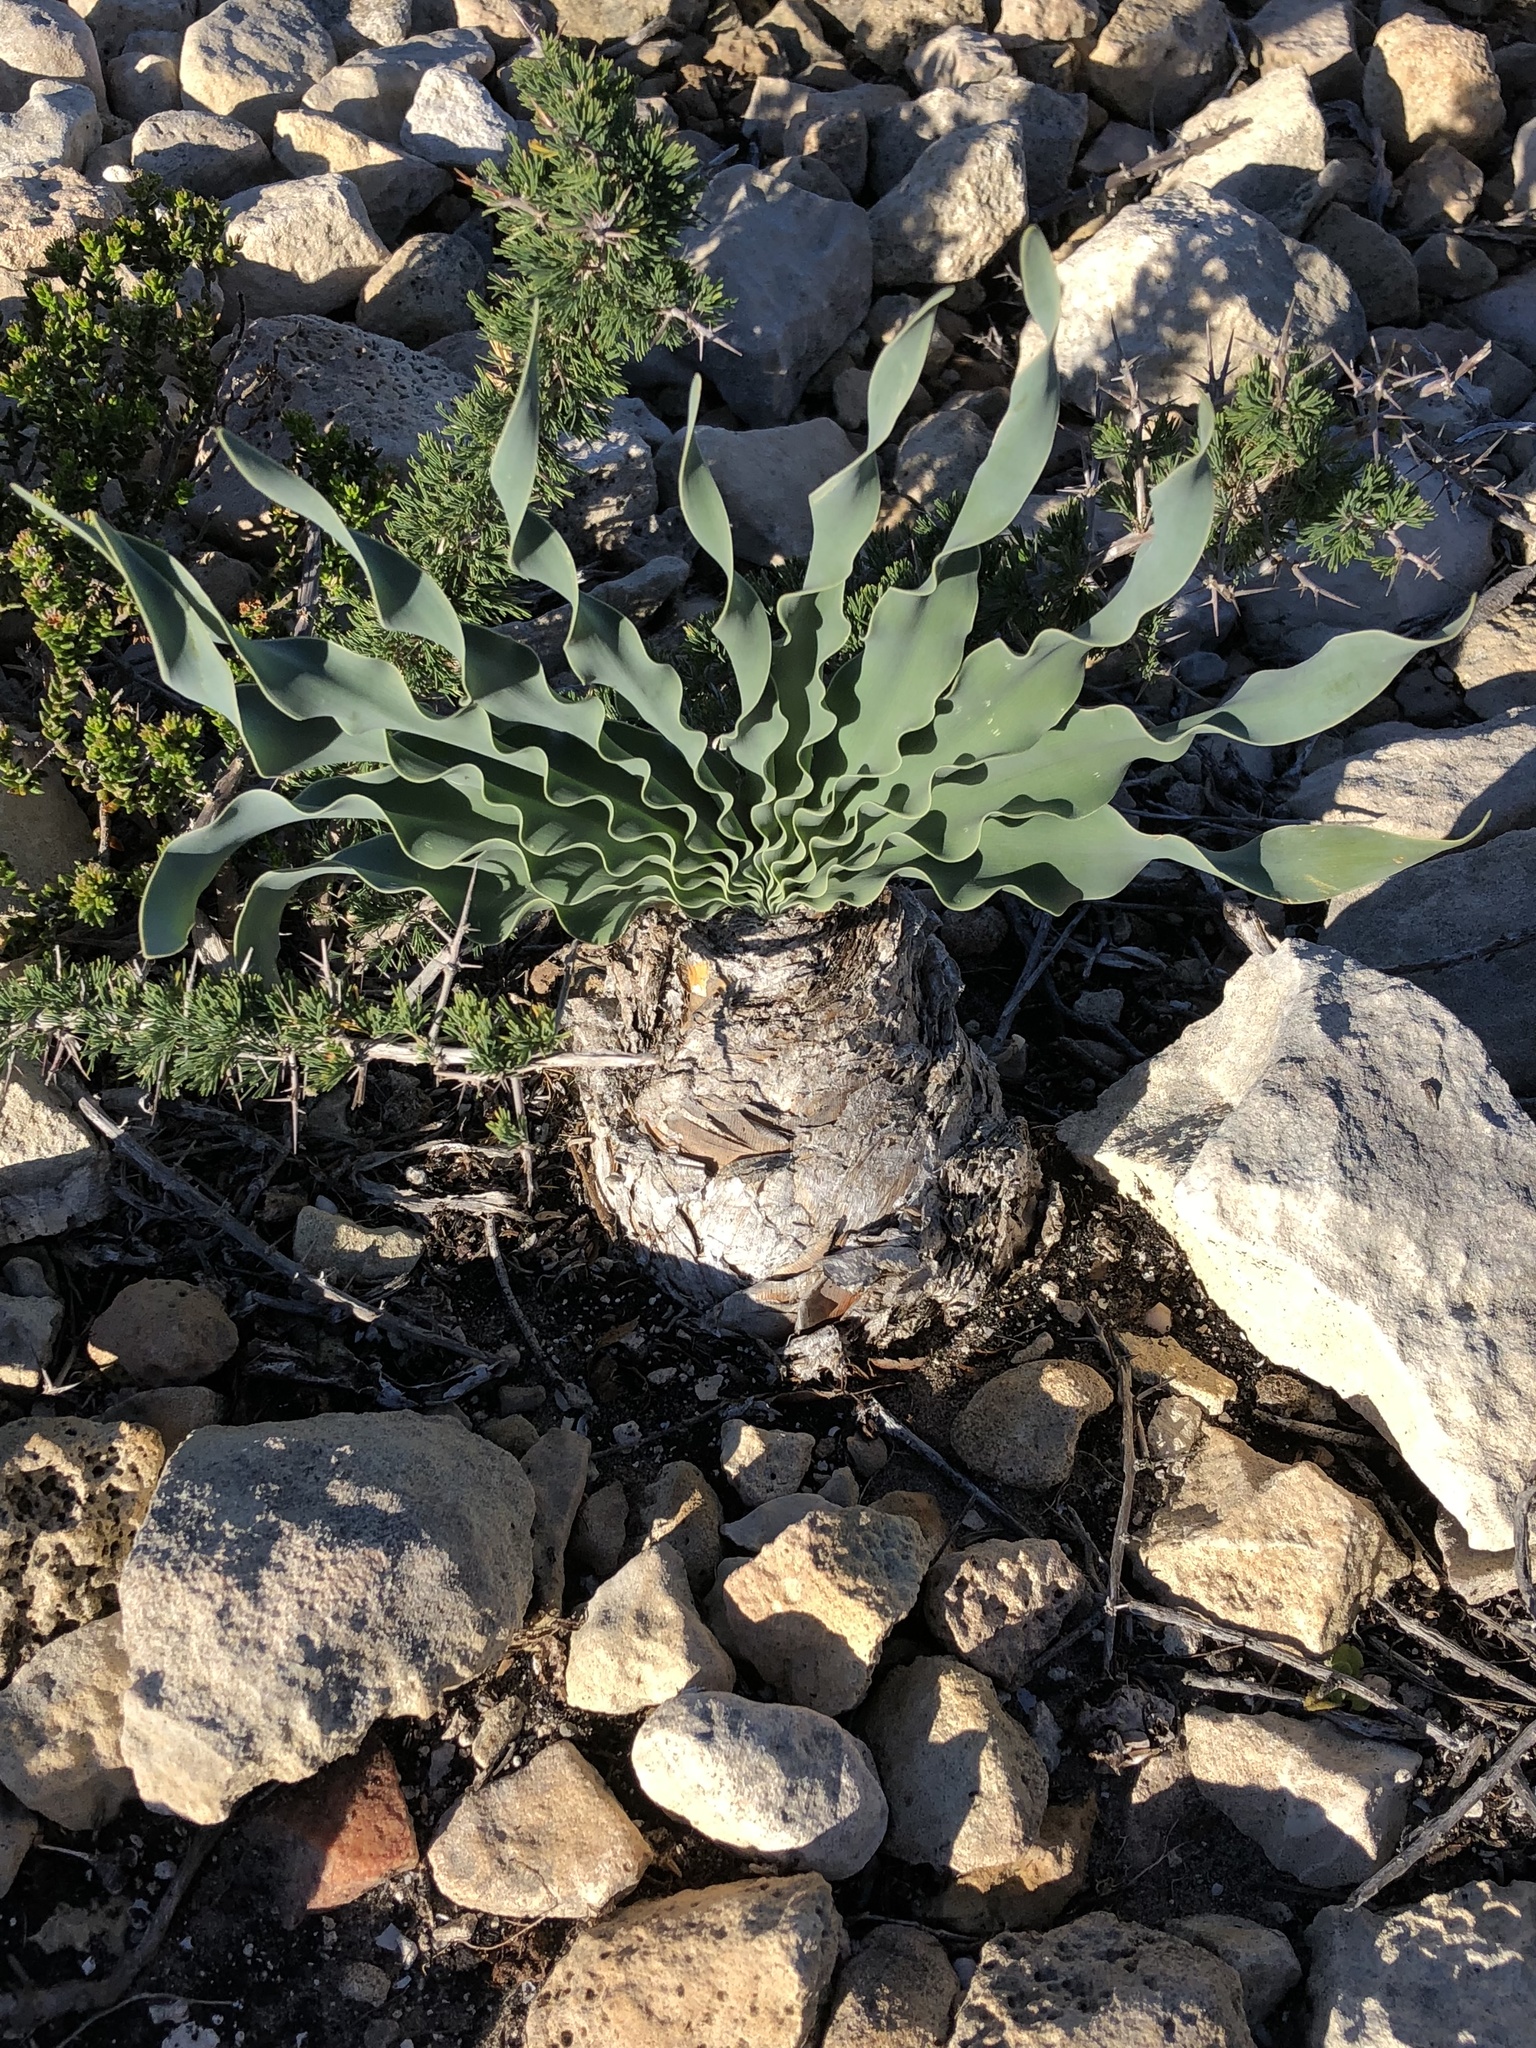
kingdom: Plantae
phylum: Tracheophyta
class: Liliopsida
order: Asparagales
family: Amaryllidaceae
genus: Boophone
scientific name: Boophone disticha
